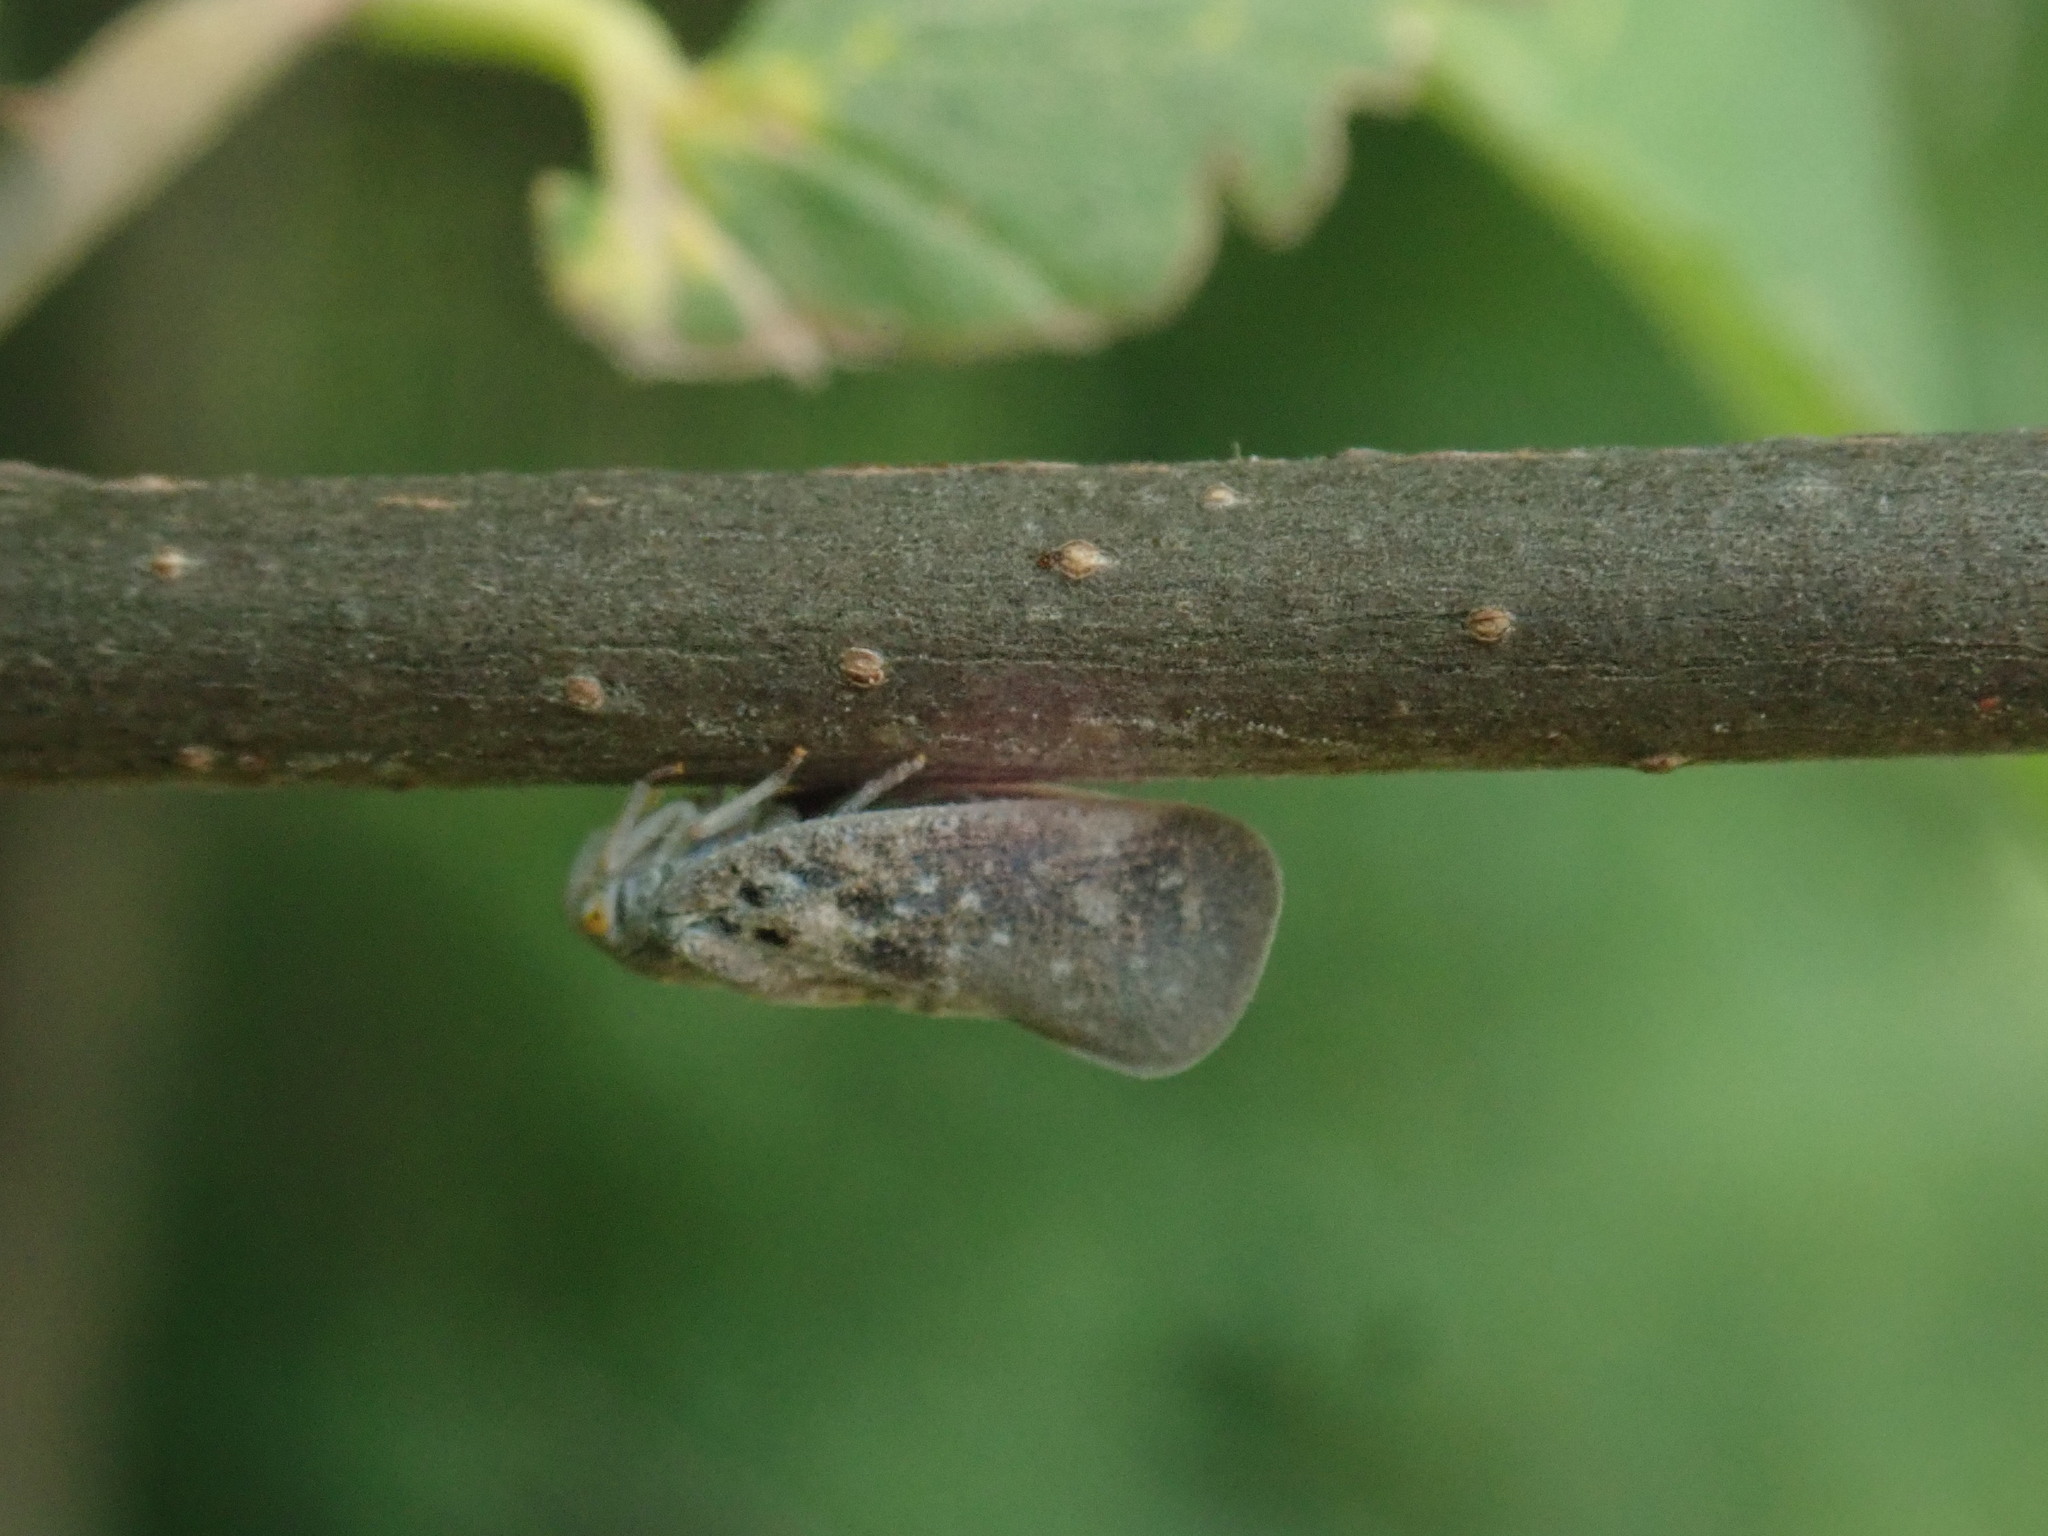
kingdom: Animalia
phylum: Arthropoda
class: Insecta
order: Hemiptera
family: Flatidae
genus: Metcalfa
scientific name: Metcalfa pruinosa
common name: Citrus flatid planthopper
